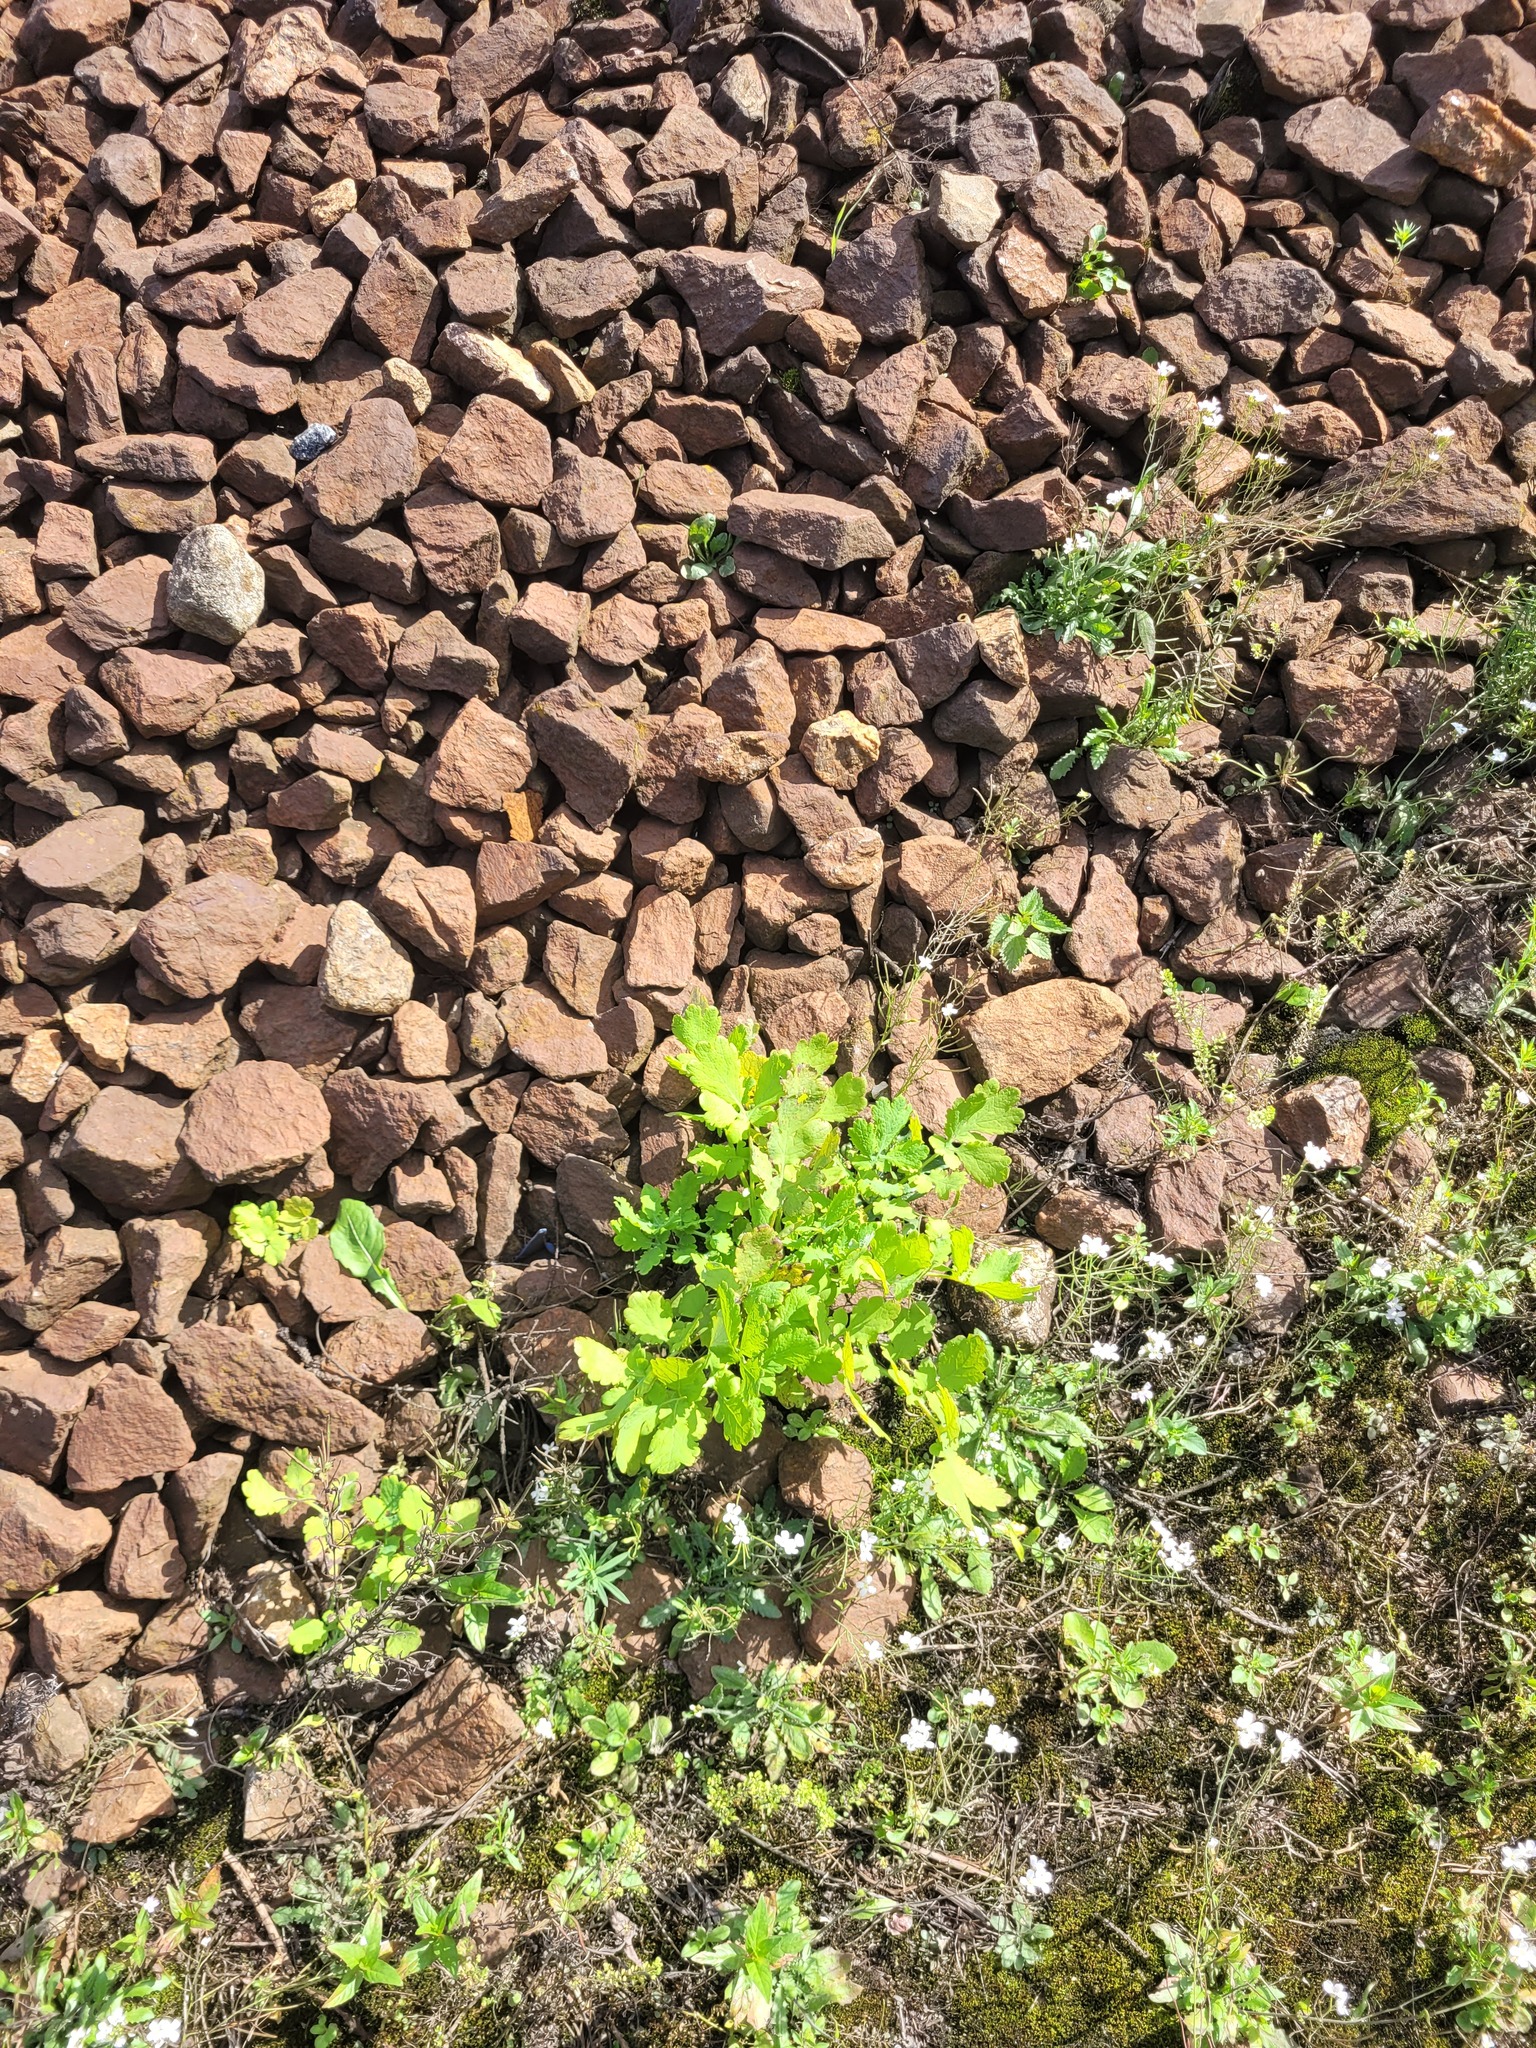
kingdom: Plantae
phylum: Tracheophyta
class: Magnoliopsida
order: Ranunculales
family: Papaveraceae
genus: Chelidonium
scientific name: Chelidonium majus
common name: Greater celandine
